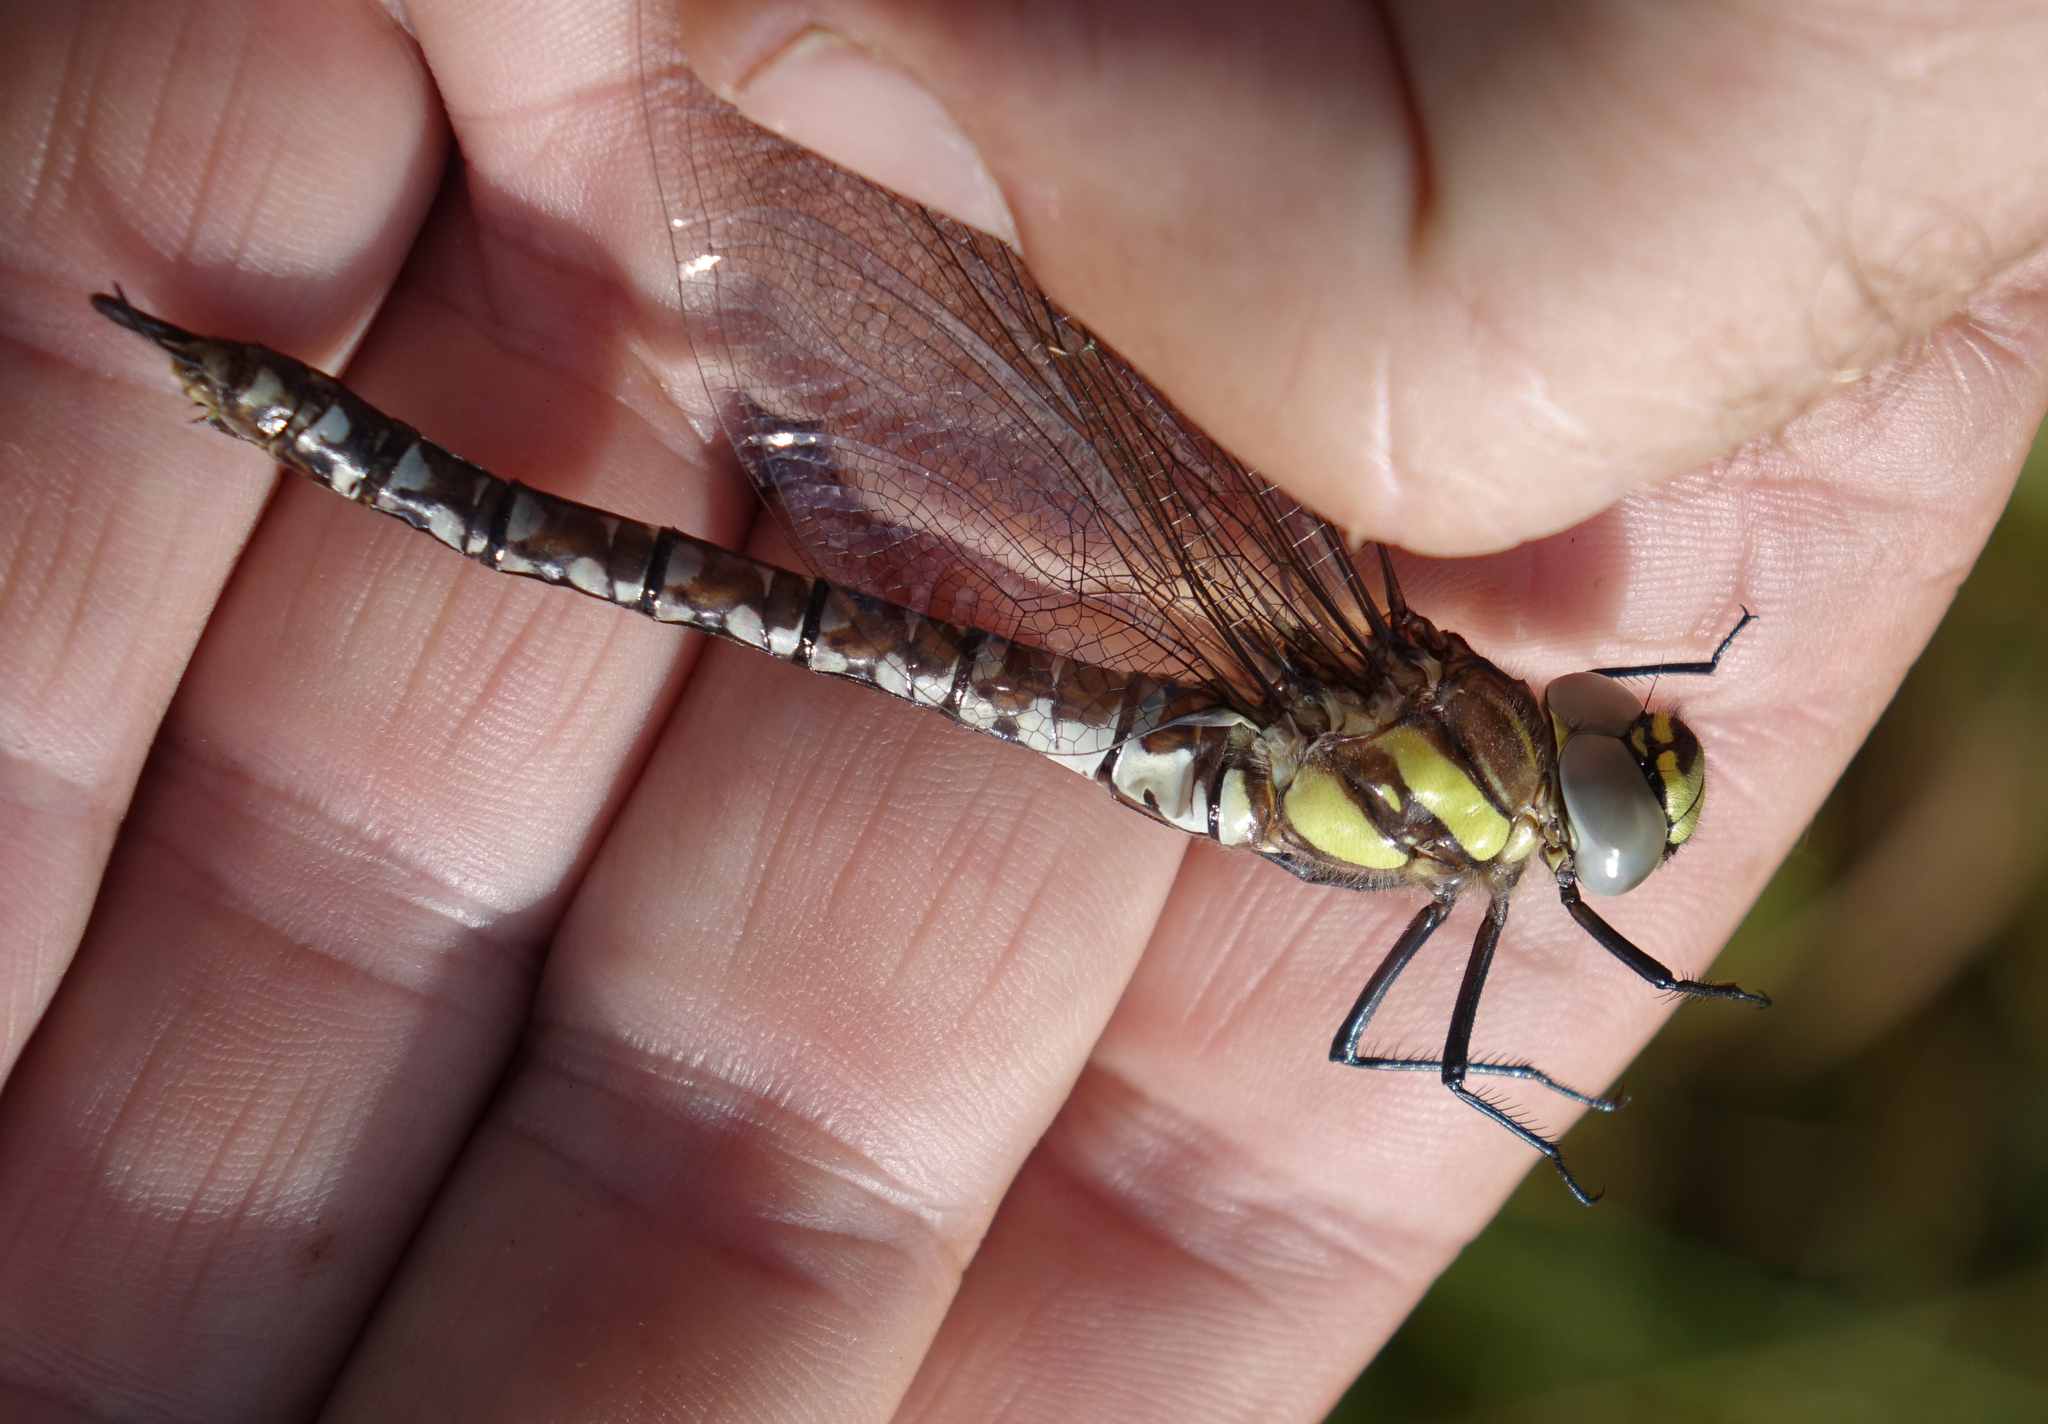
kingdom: Animalia
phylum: Arthropoda
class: Insecta
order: Odonata
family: Aeshnidae
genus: Aeshna
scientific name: Aeshna juncea
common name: Moorland hawker
